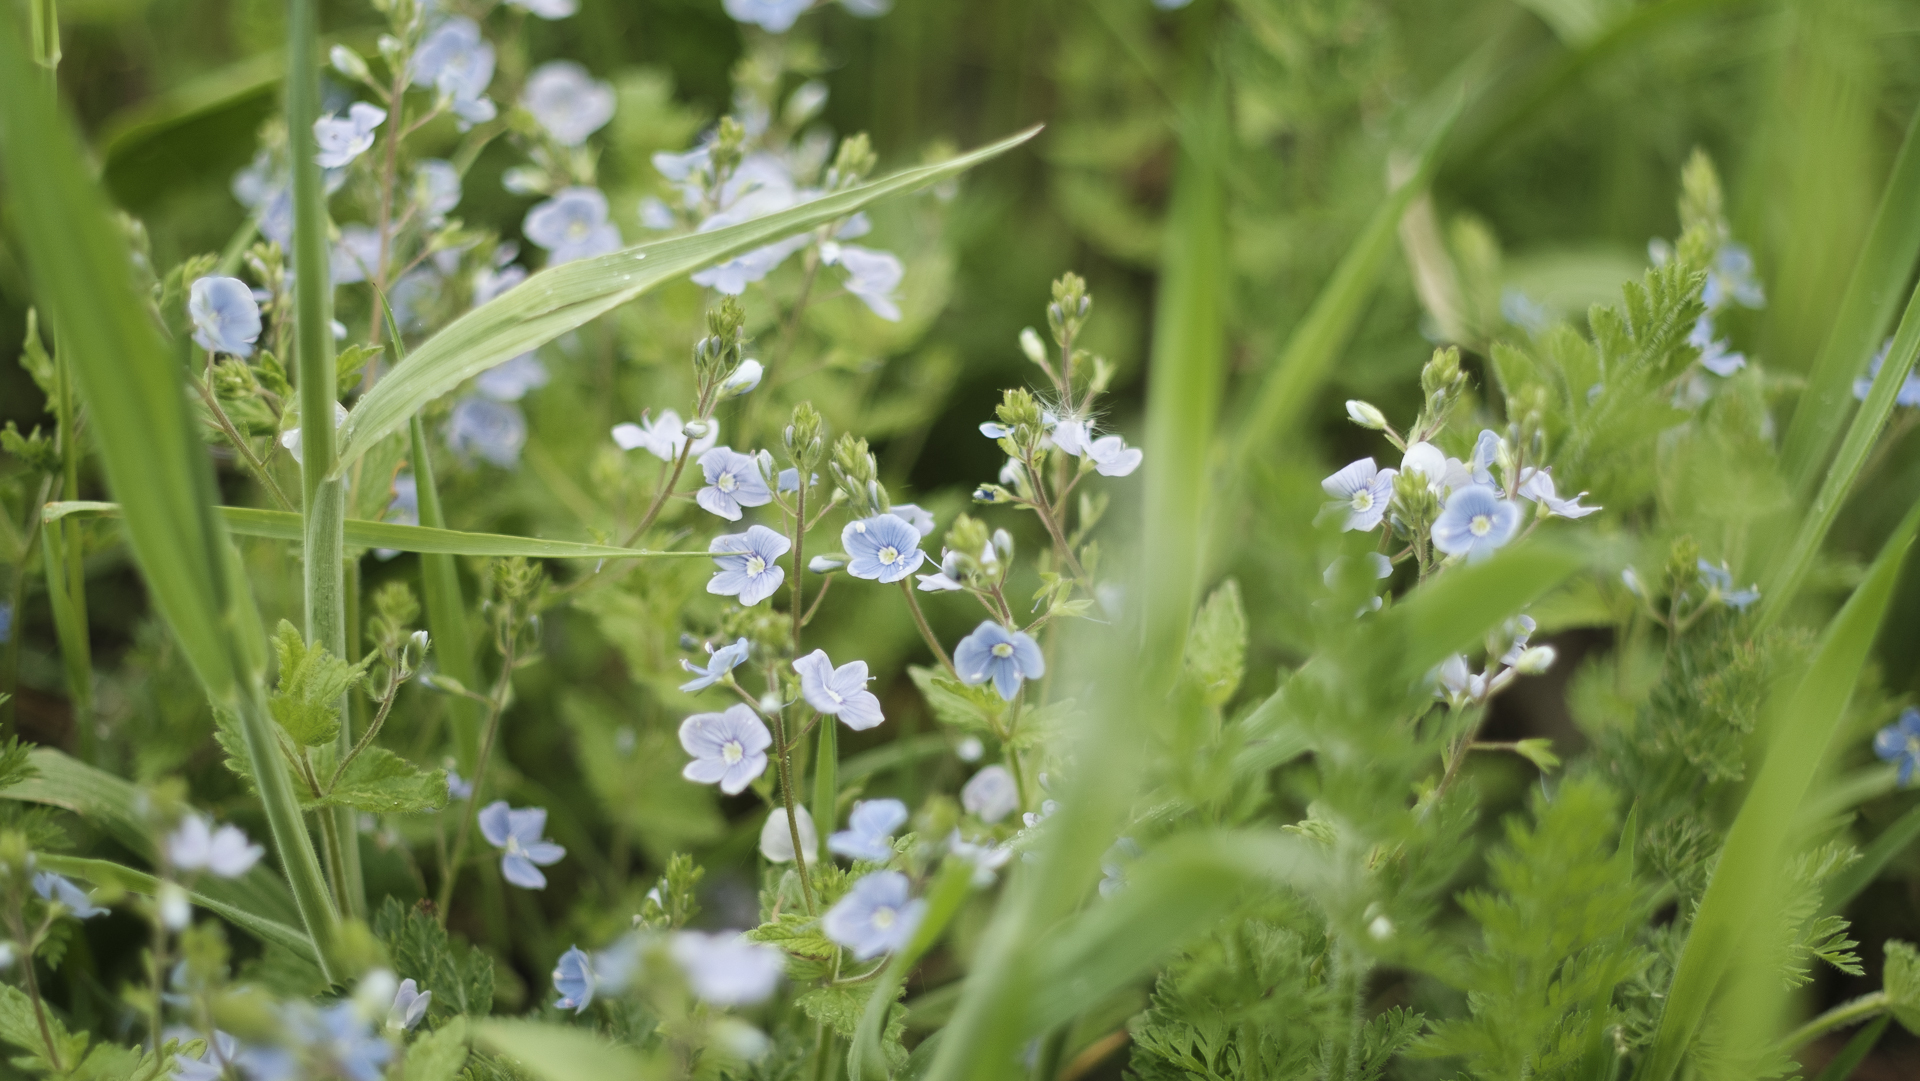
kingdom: Plantae
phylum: Tracheophyta
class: Magnoliopsida
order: Lamiales
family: Plantaginaceae
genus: Veronica
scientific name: Veronica chamaedrys
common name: Germander speedwell
